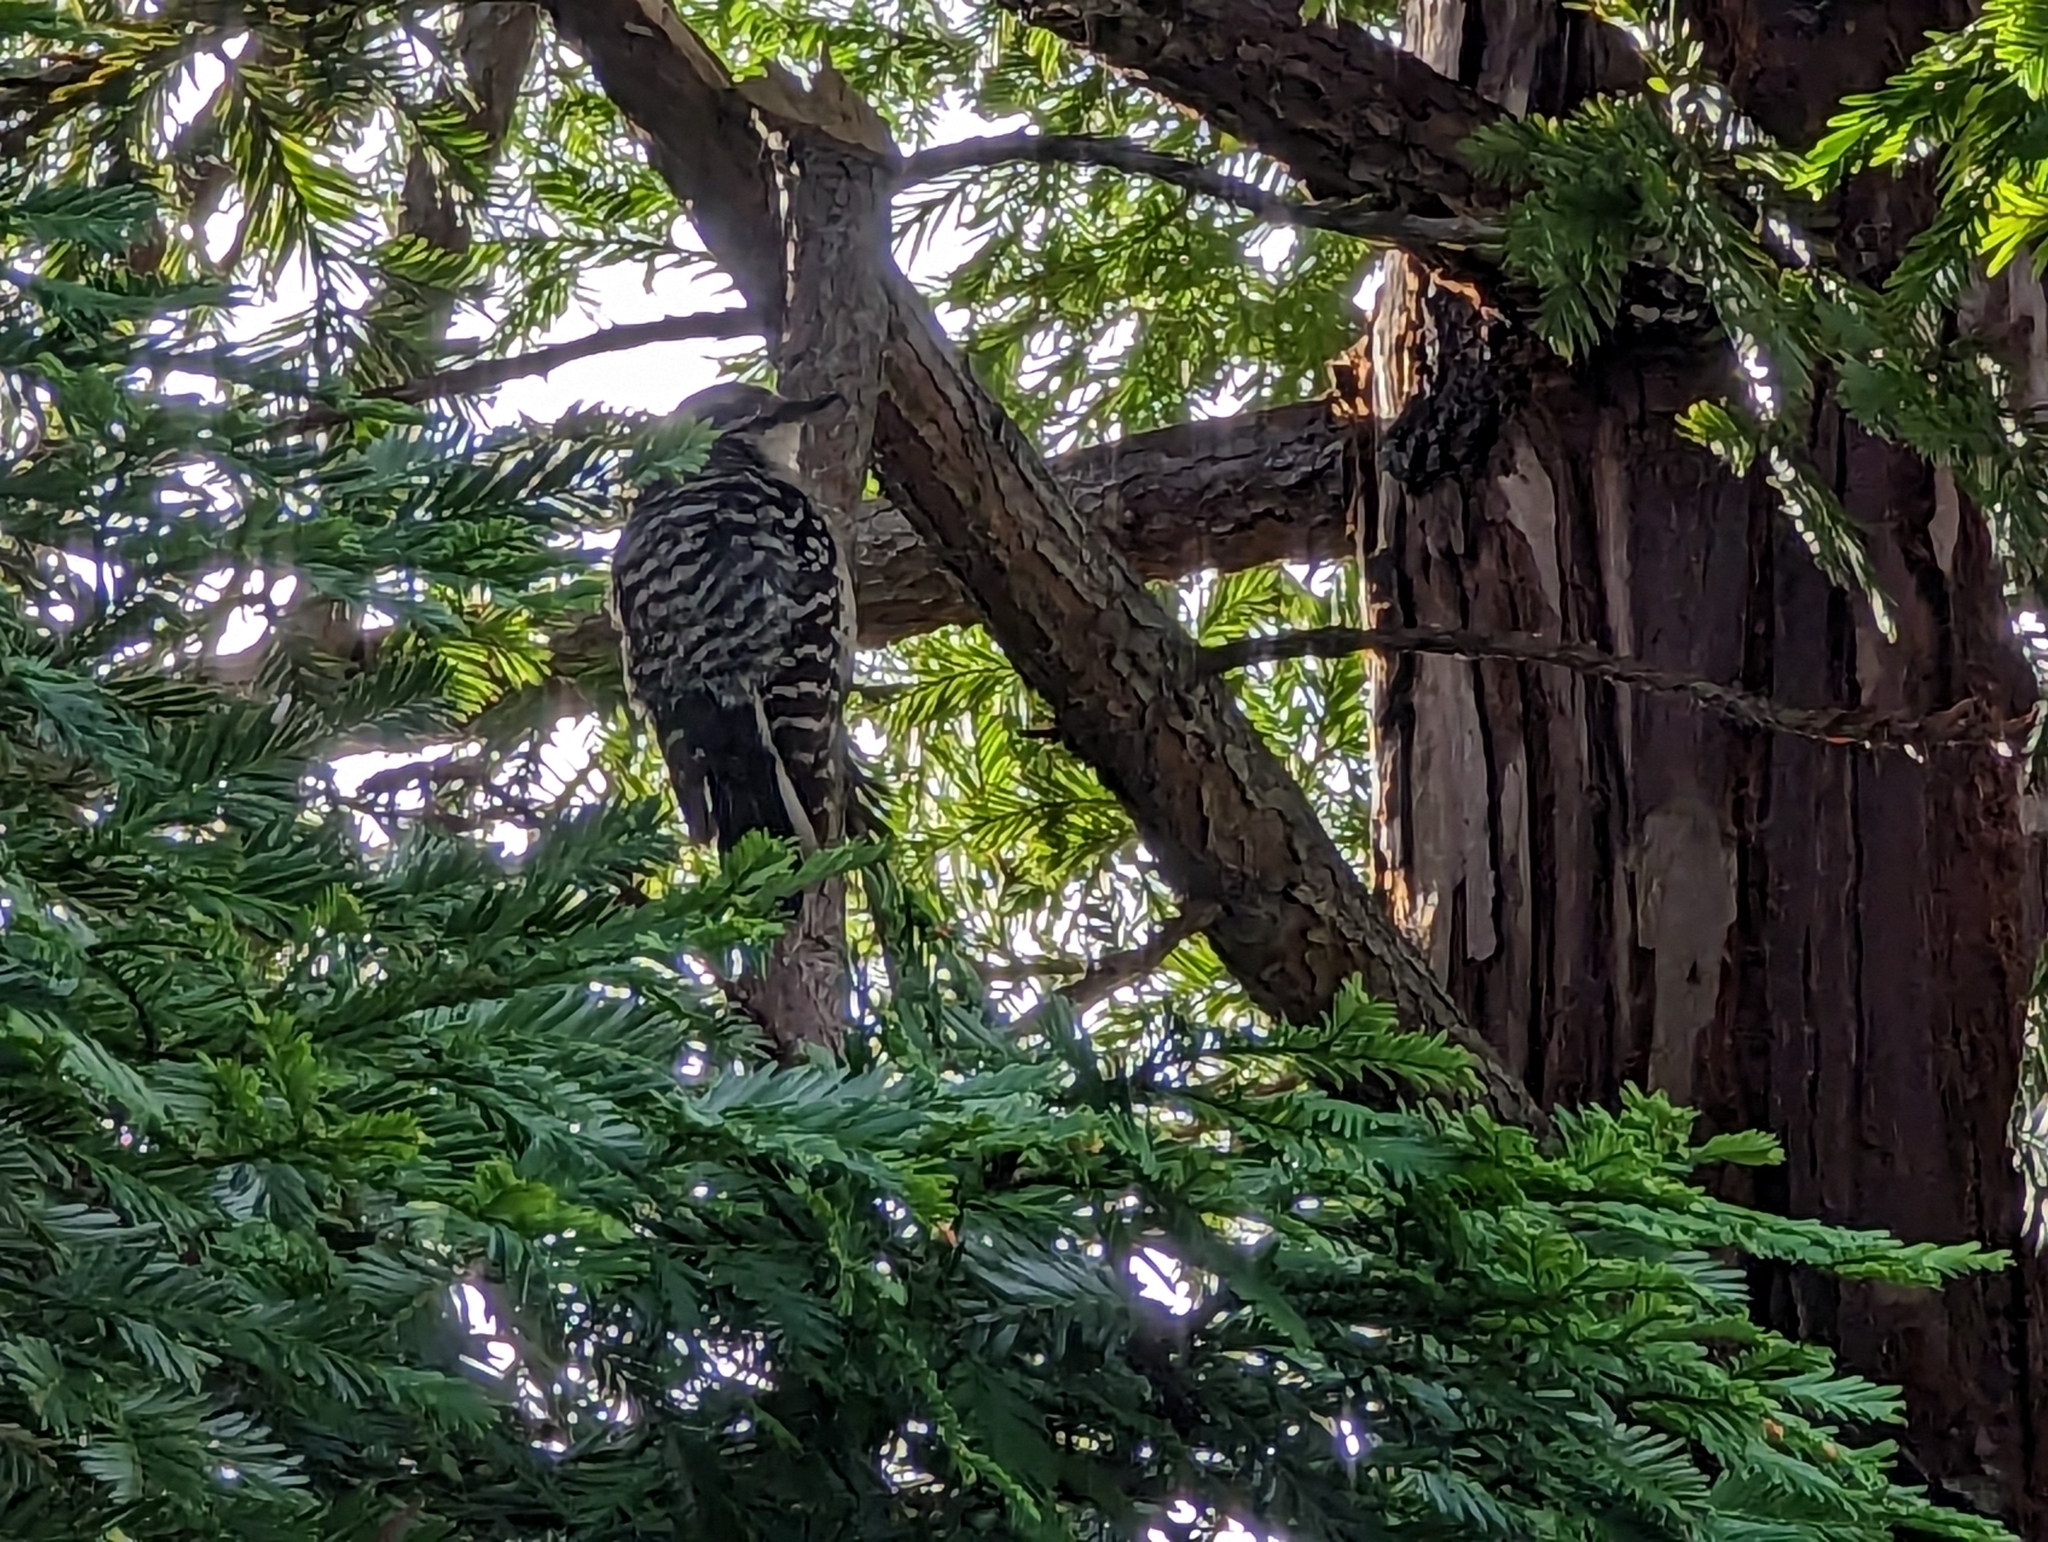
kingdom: Animalia
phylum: Chordata
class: Aves
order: Piciformes
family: Picidae
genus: Dryobates
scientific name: Dryobates nuttallii
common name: Nuttall's woodpecker
